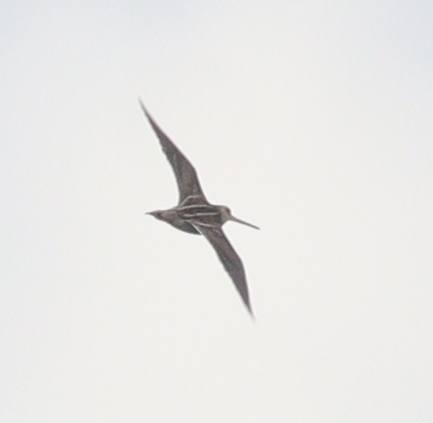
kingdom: Animalia
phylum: Chordata
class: Aves
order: Charadriiformes
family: Scolopacidae
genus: Gallinago
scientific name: Gallinago gallinago
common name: Common snipe
